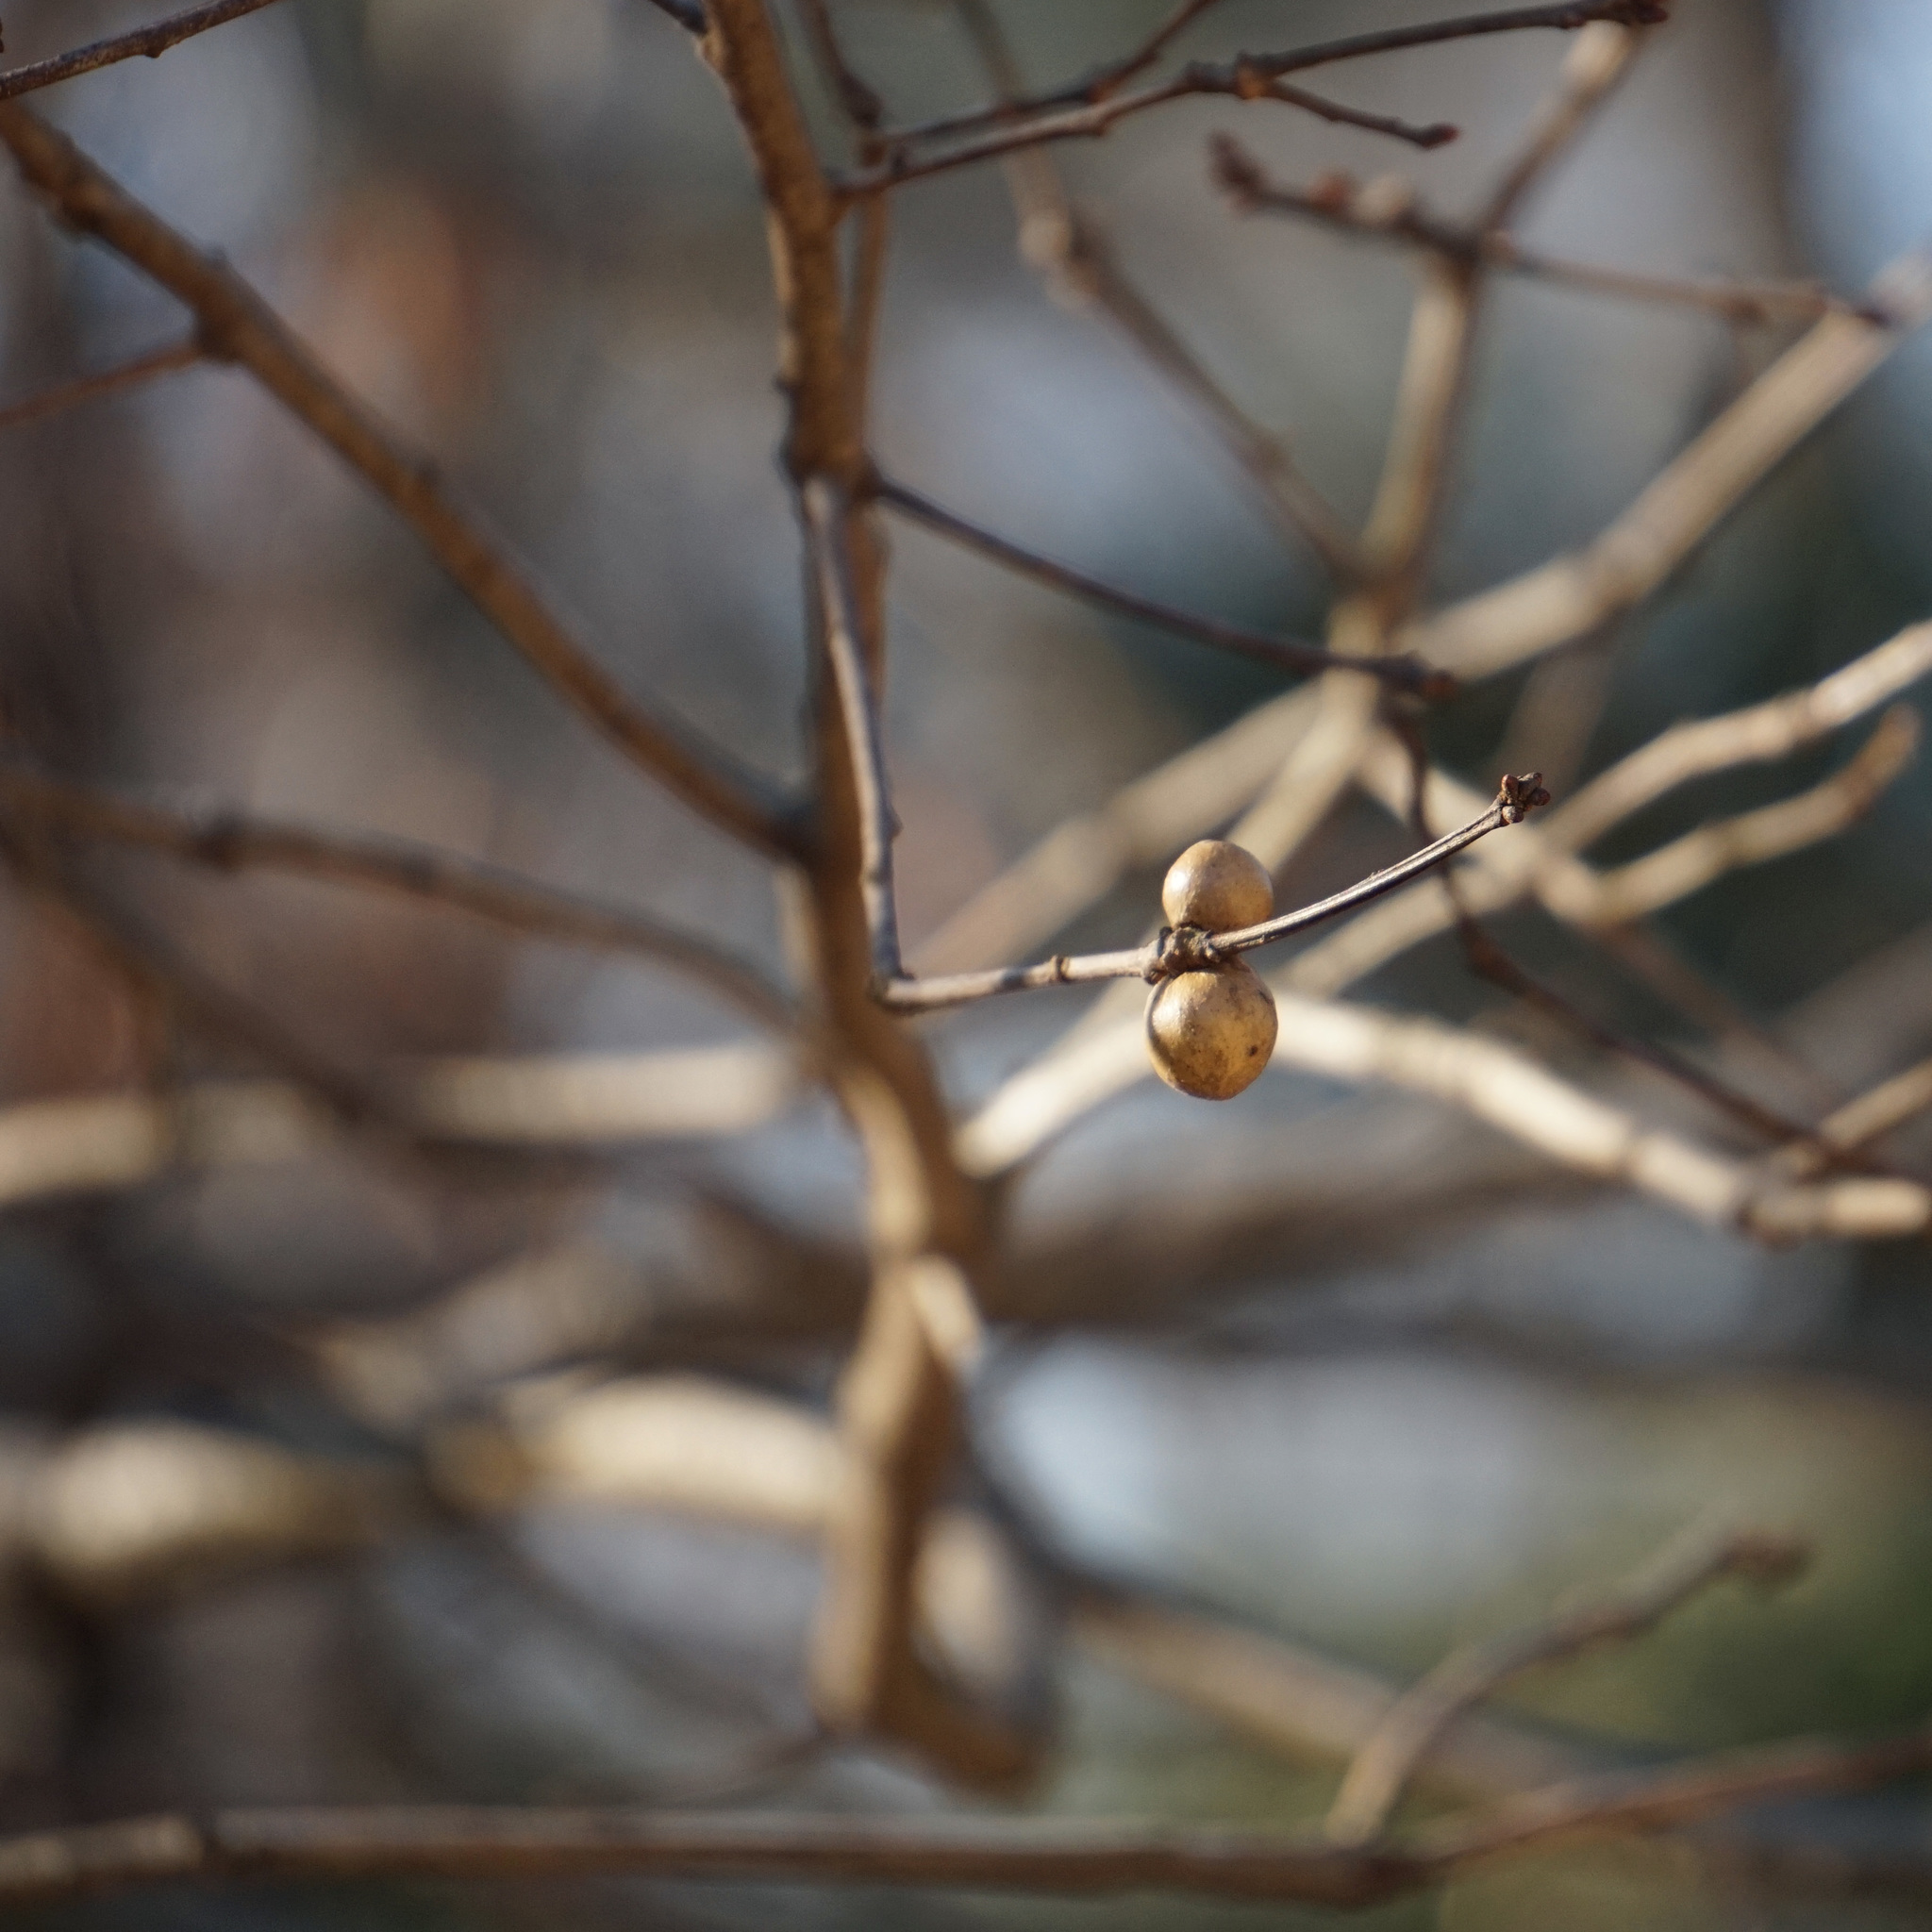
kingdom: Animalia
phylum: Arthropoda
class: Insecta
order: Hymenoptera
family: Cynipidae
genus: Disholcaspis
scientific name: Disholcaspis quercusglobulus
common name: Round bullet gall wasp
